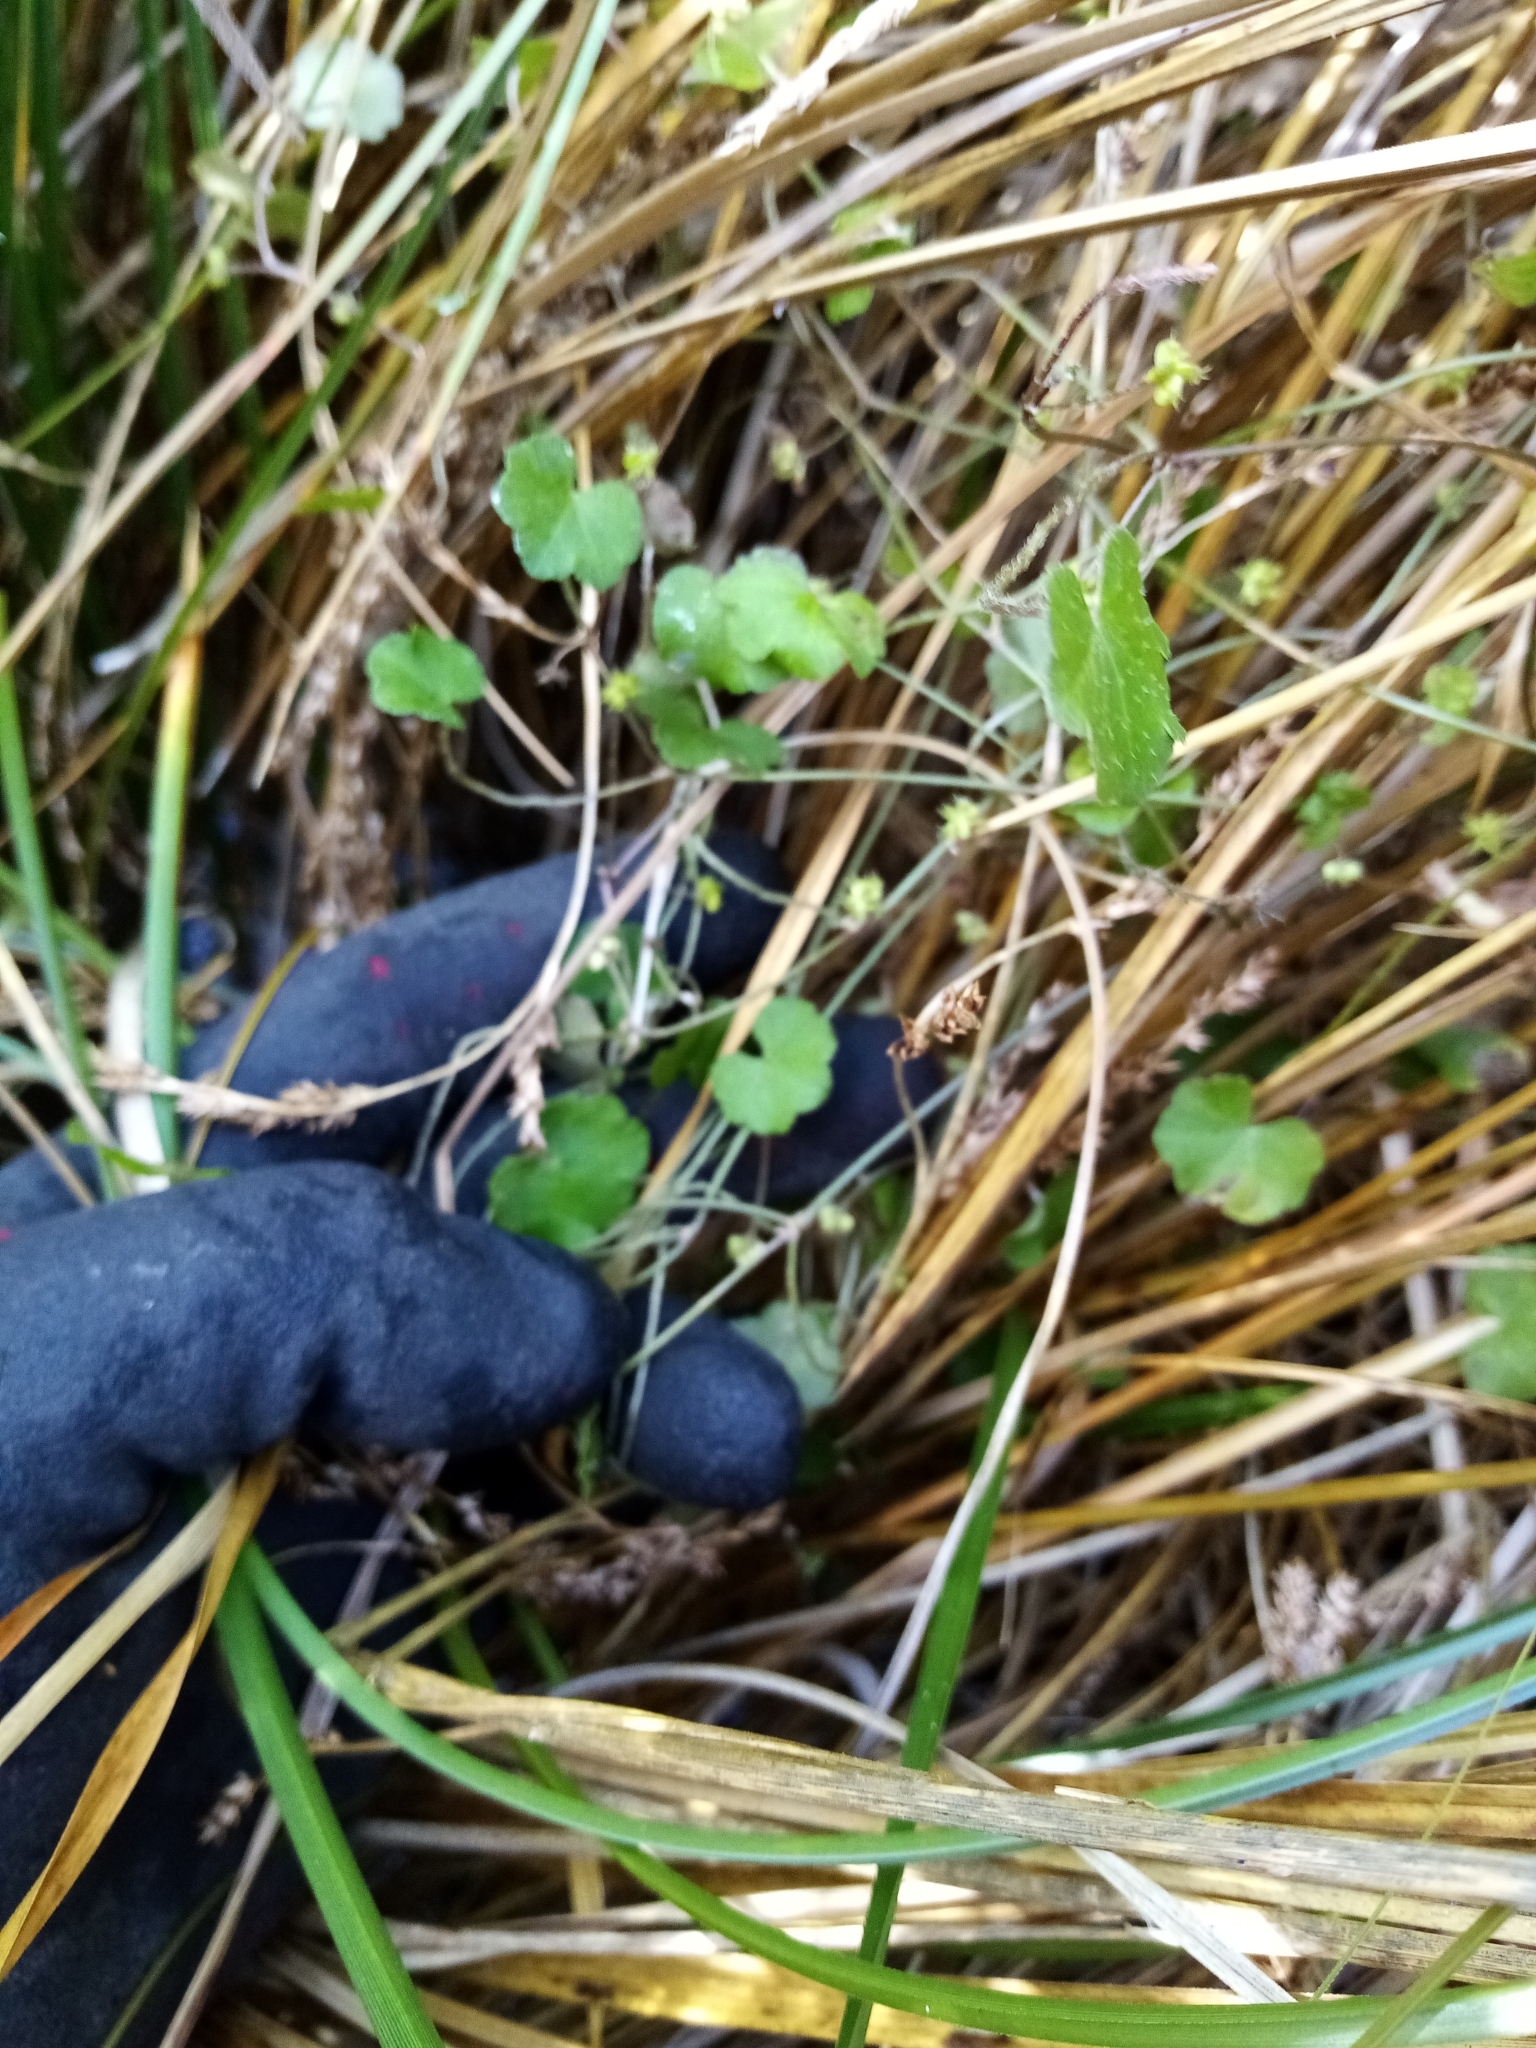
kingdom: Plantae
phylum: Tracheophyta
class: Magnoliopsida
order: Apiales
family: Araliaceae
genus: Hydrocotyle
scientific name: Hydrocotyle novae-zeelandiae
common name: New zealand pennywort
